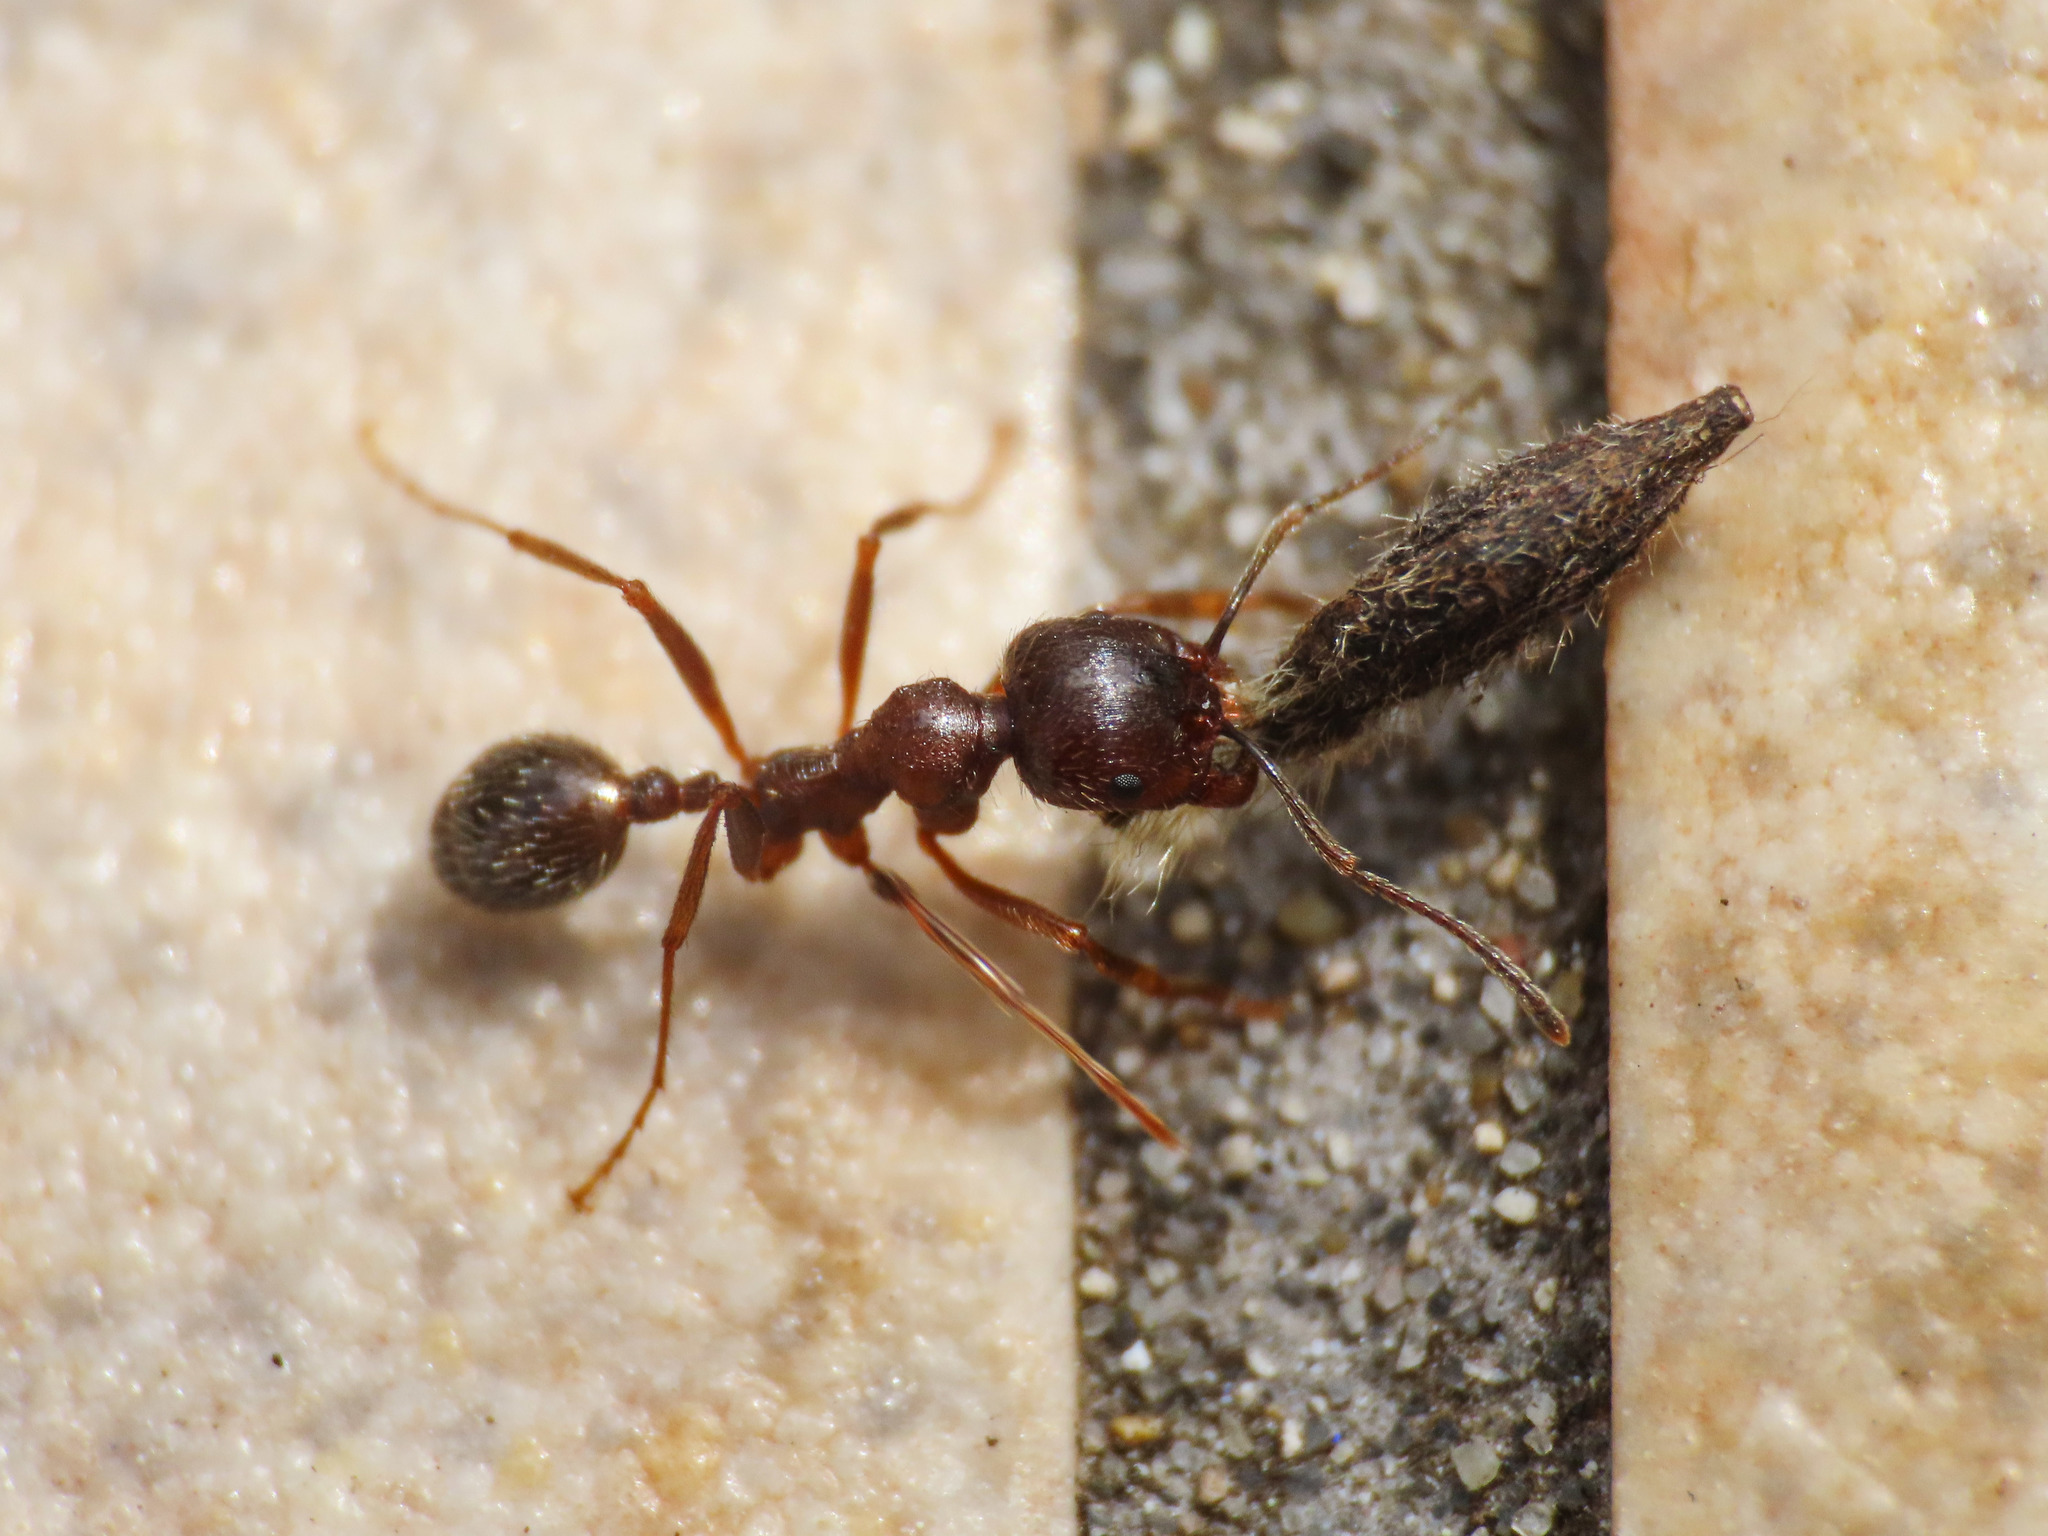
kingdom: Animalia
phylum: Arthropoda
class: Insecta
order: Hymenoptera
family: Formicidae
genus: Messor
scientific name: Messor ibericus
